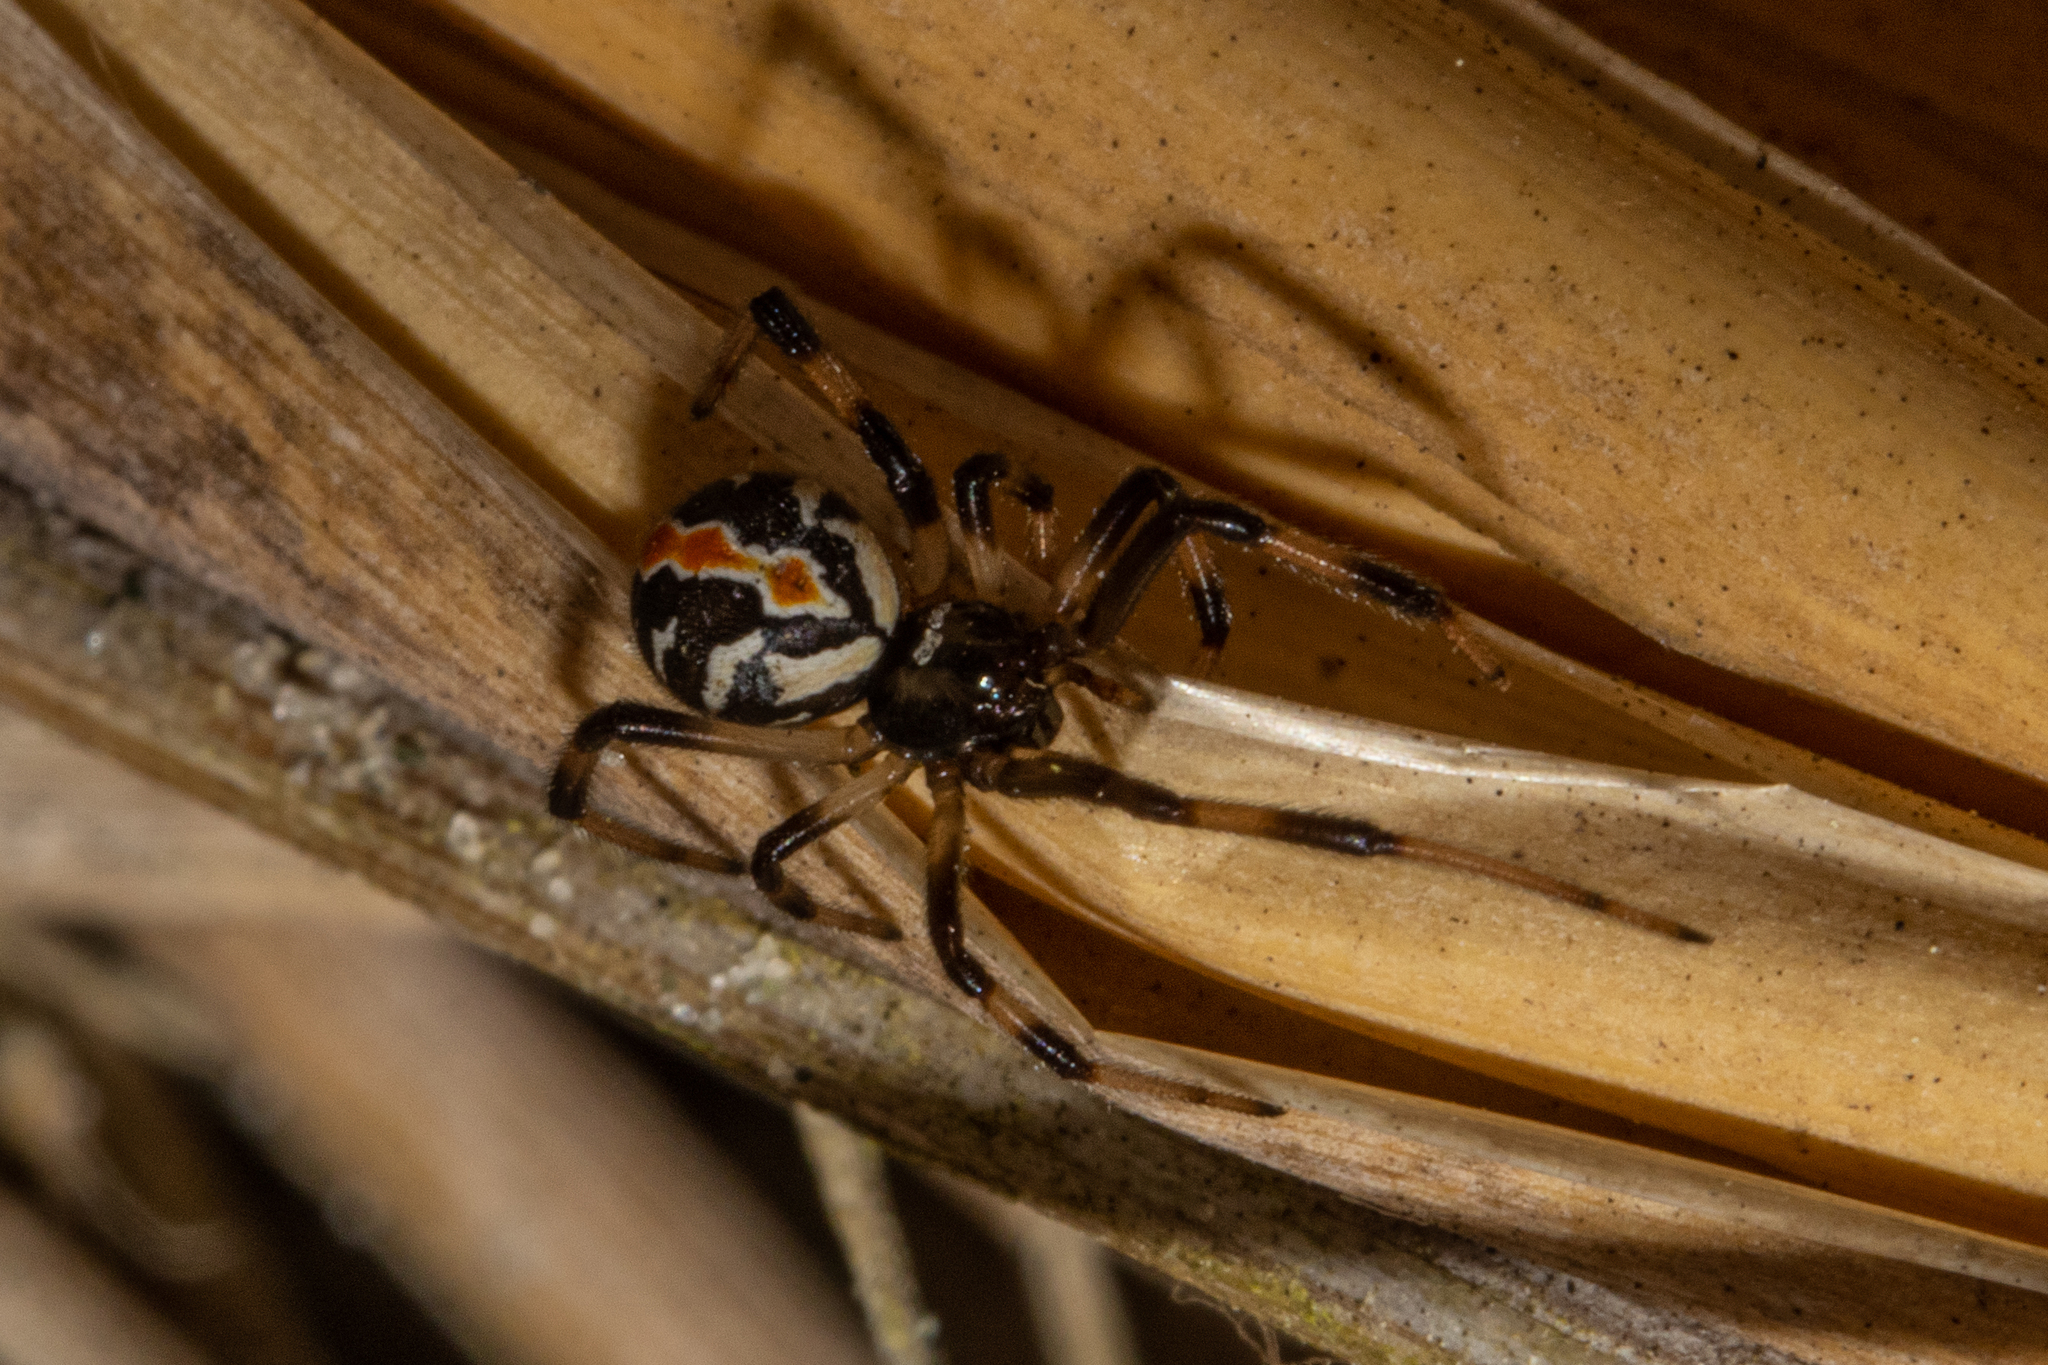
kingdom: Animalia
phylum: Arthropoda
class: Arachnida
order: Araneae
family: Theridiidae
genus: Latrodectus
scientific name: Latrodectus katipo
